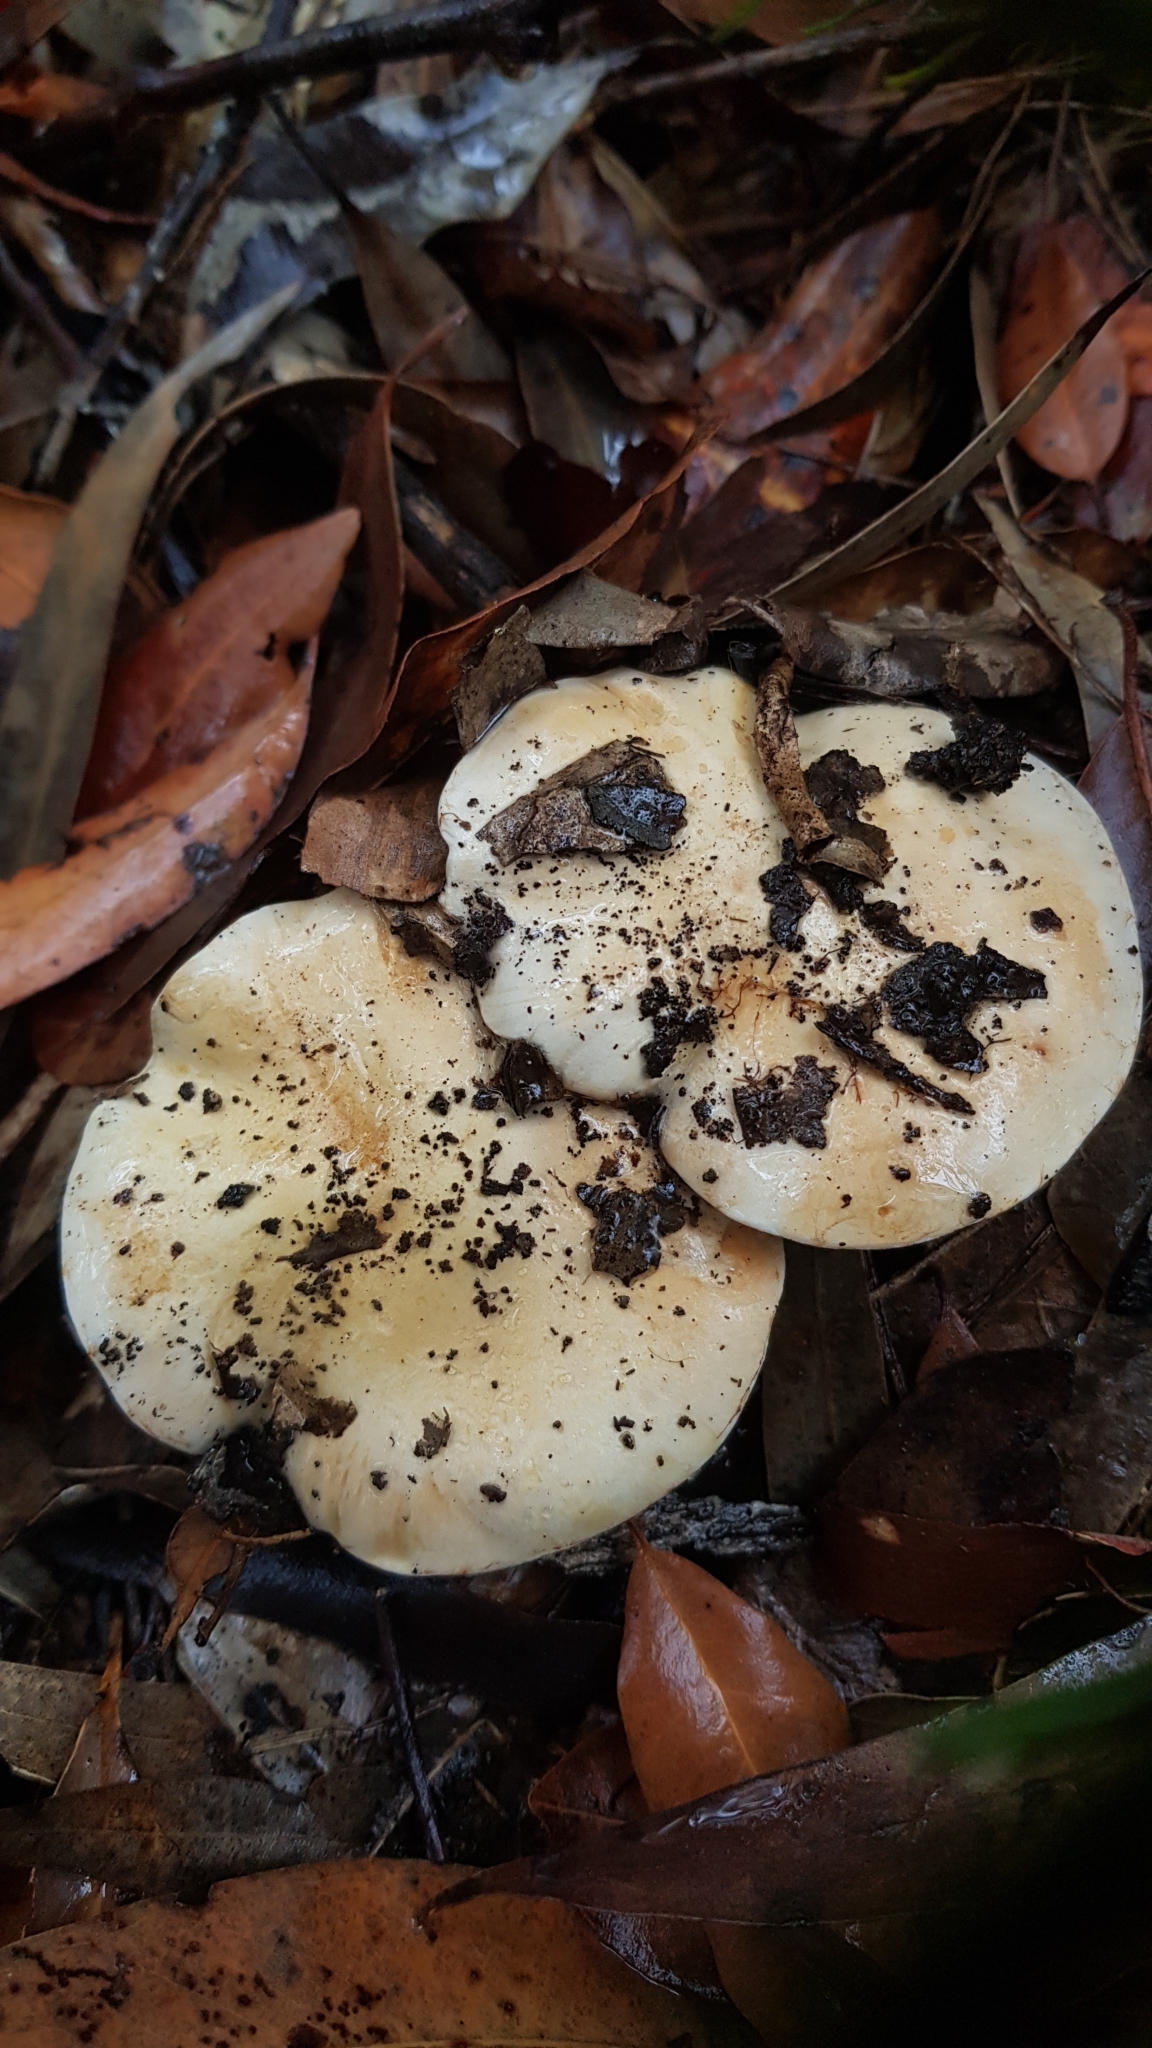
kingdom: Fungi
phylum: Basidiomycota
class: Agaricomycetes
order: Agaricales
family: Cortinariaceae
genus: Phlegmacium
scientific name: Phlegmacium coelopus
